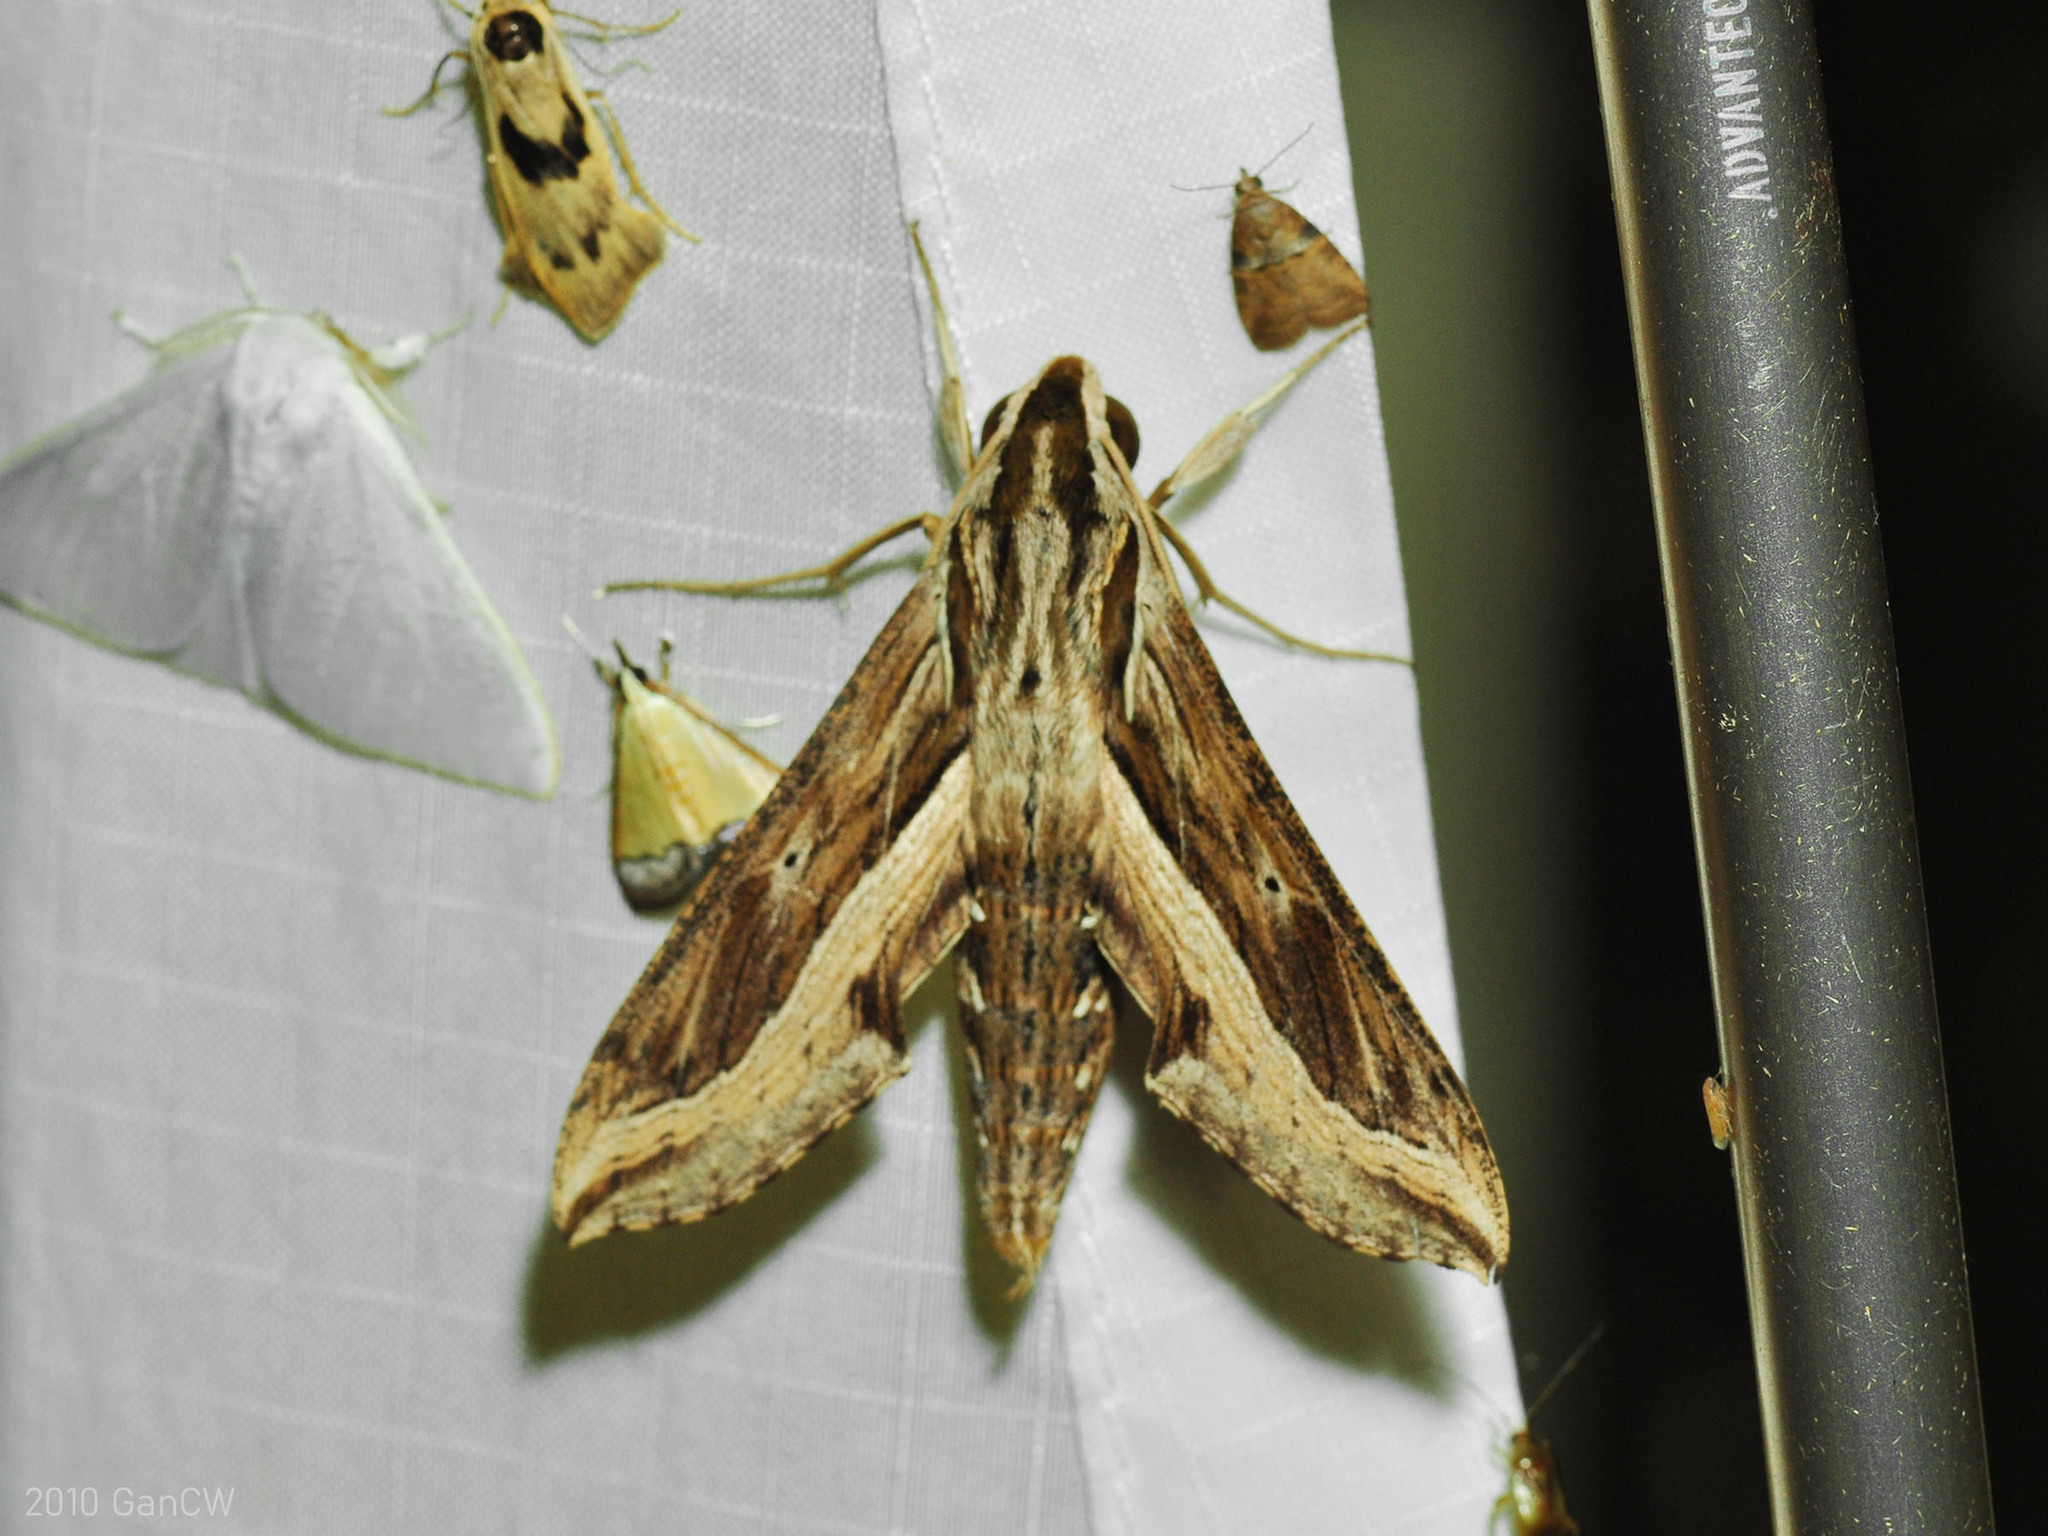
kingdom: Animalia
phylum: Arthropoda
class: Insecta
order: Lepidoptera
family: Sphingidae
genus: Hippotion
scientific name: Hippotion velox
